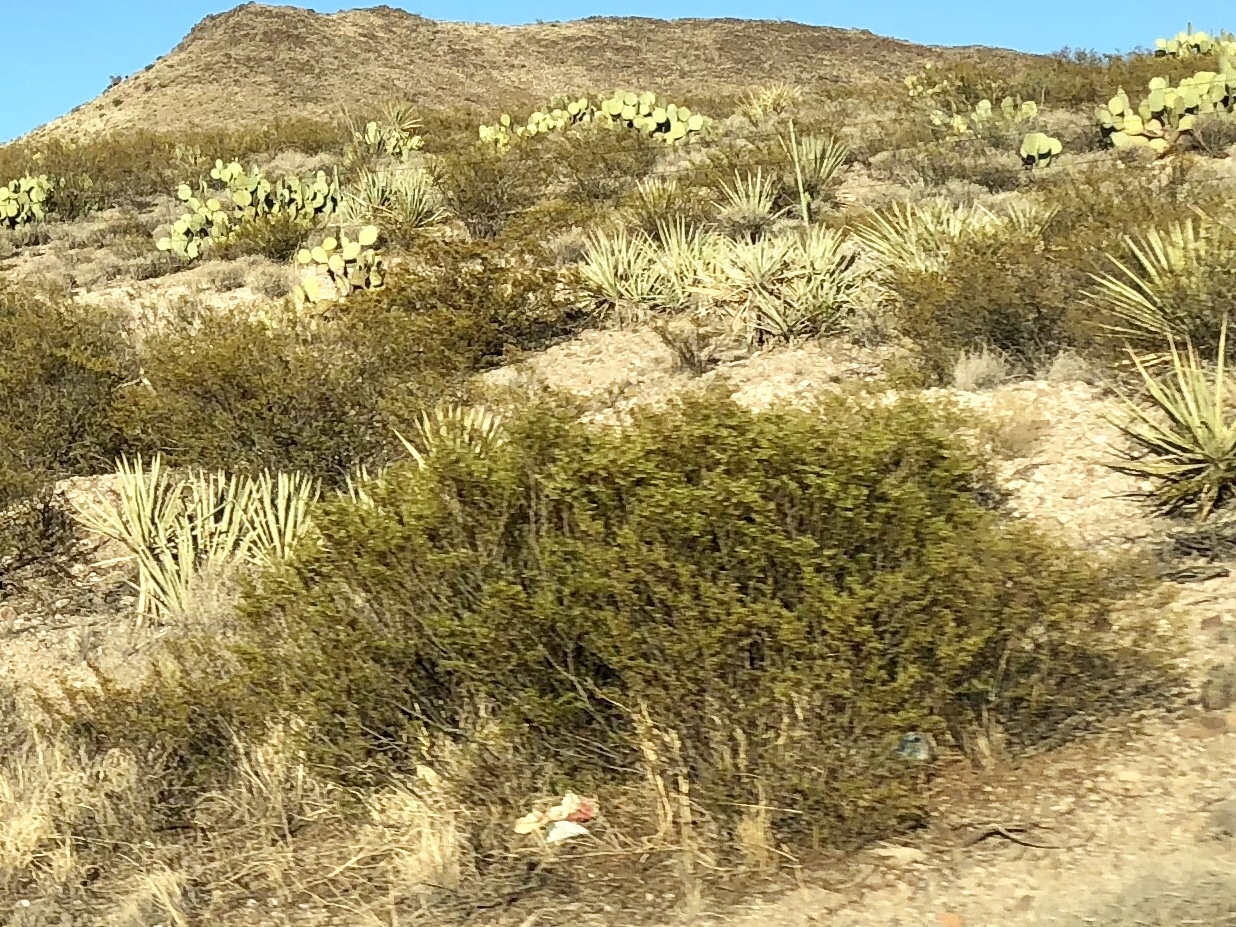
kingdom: Plantae
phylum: Tracheophyta
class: Magnoliopsida
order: Zygophyllales
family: Zygophyllaceae
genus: Larrea
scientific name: Larrea tridentata
